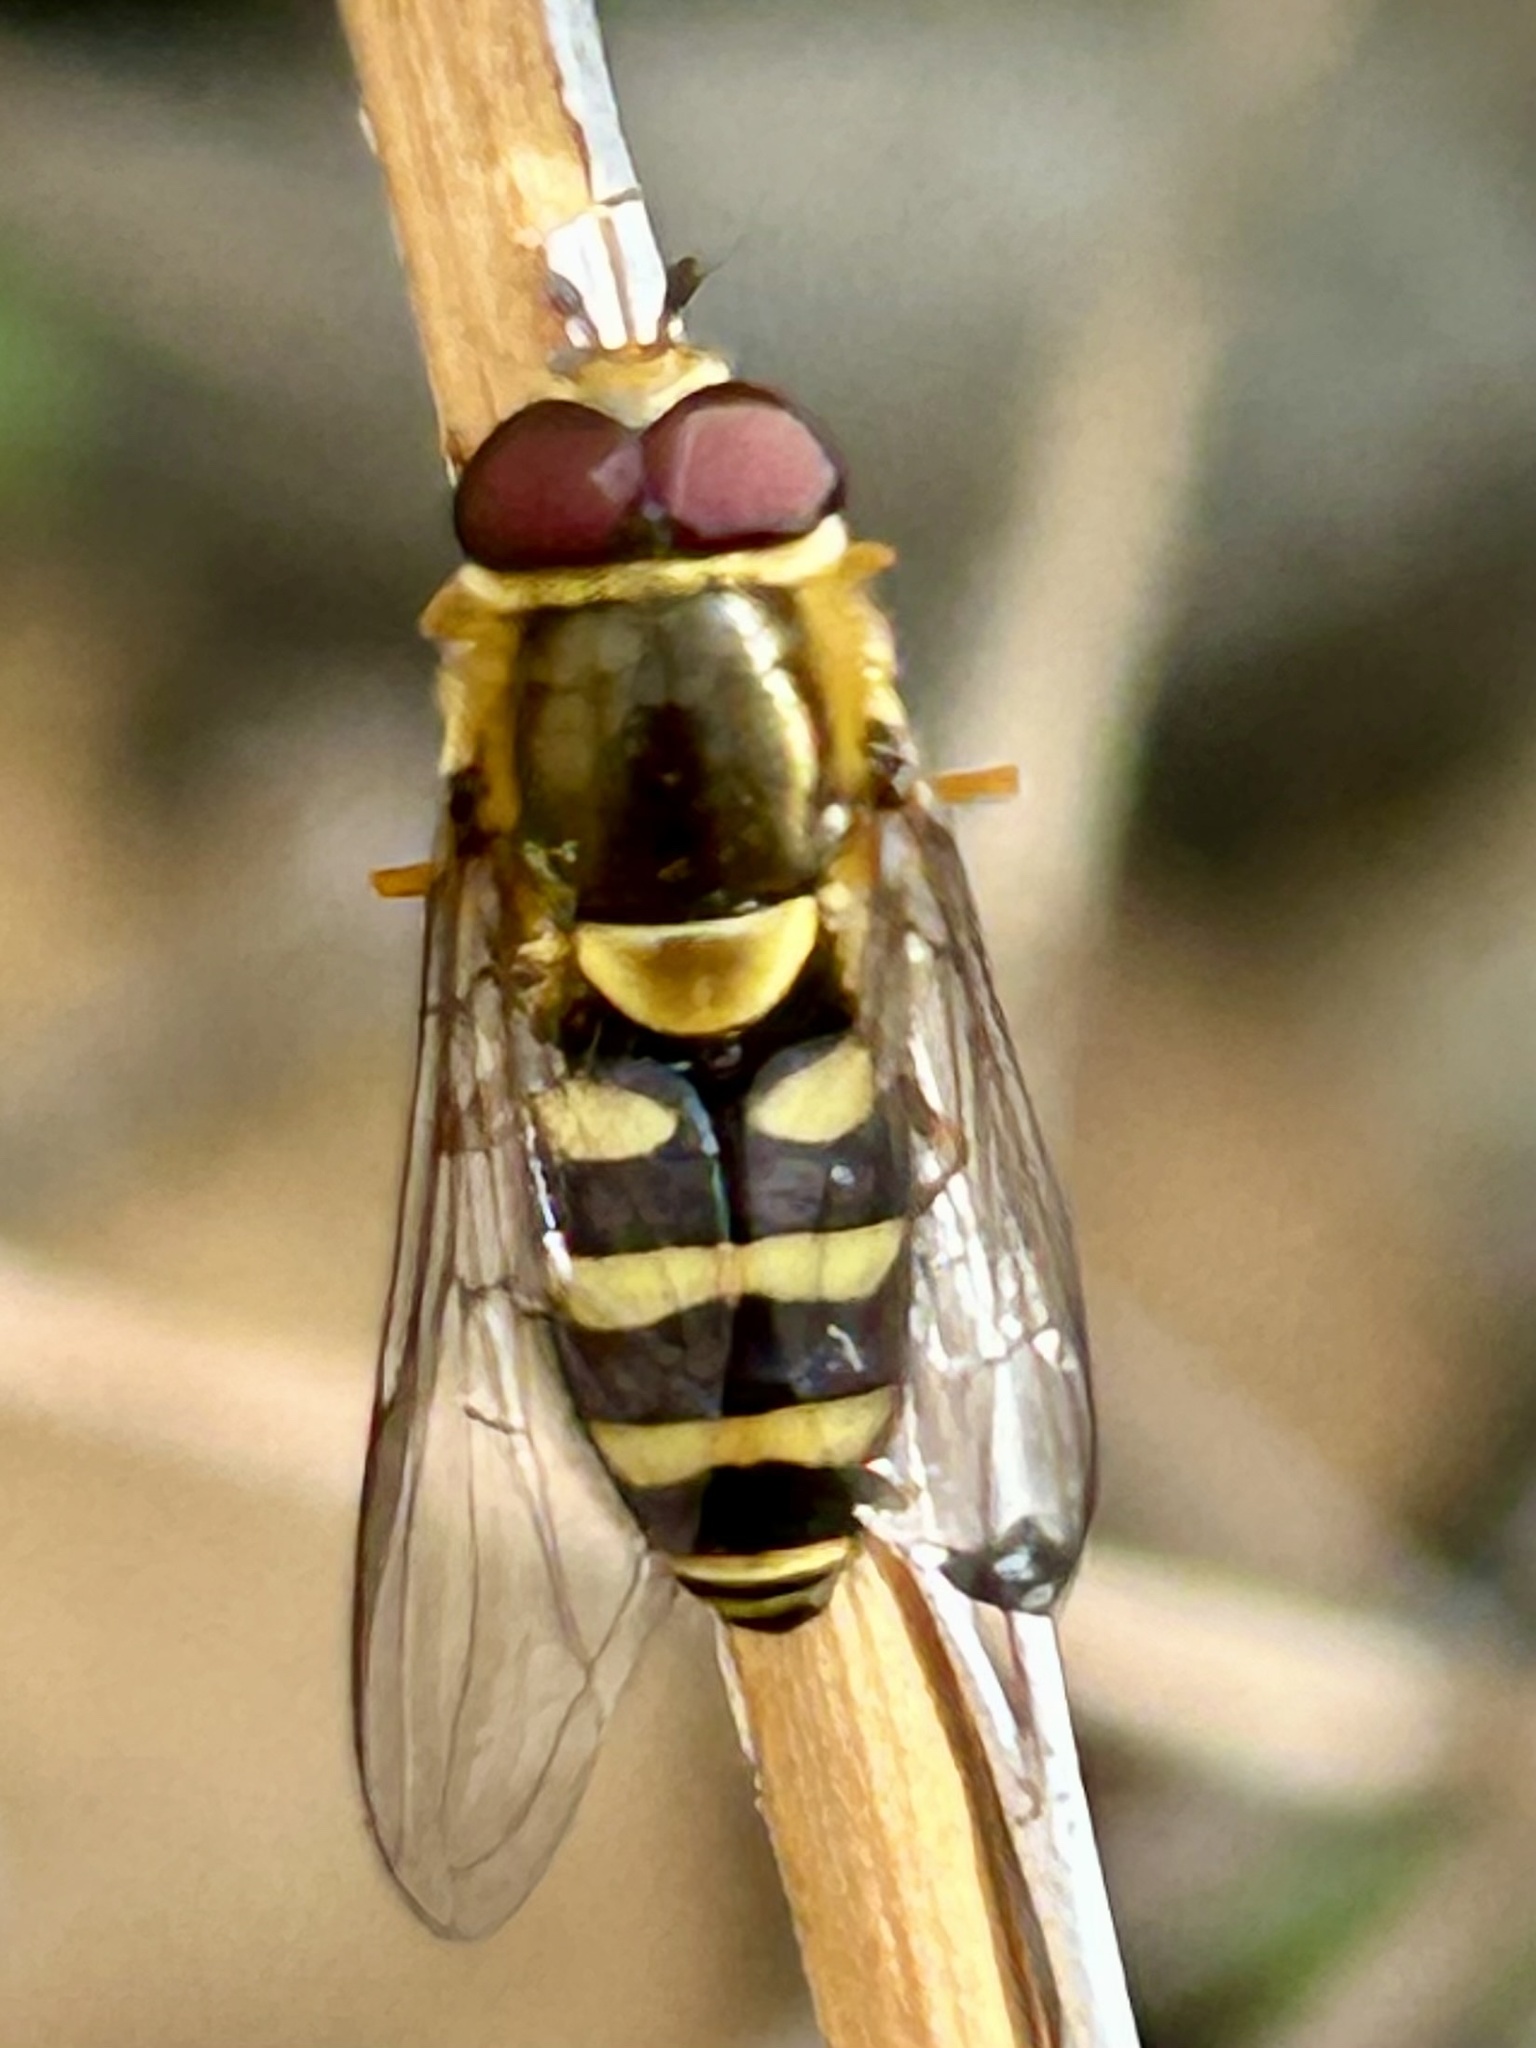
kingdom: Animalia
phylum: Arthropoda
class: Insecta
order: Diptera
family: Syrphidae
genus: Syrphus
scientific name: Syrphus opinator
